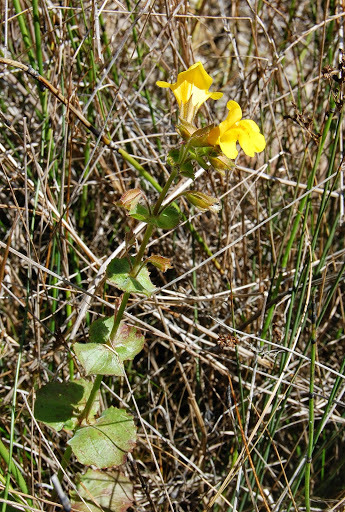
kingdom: Plantae
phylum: Tracheophyta
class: Magnoliopsida
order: Lamiales
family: Phrymaceae
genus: Erythranthe
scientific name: Erythranthe guttata
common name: Monkeyflower
